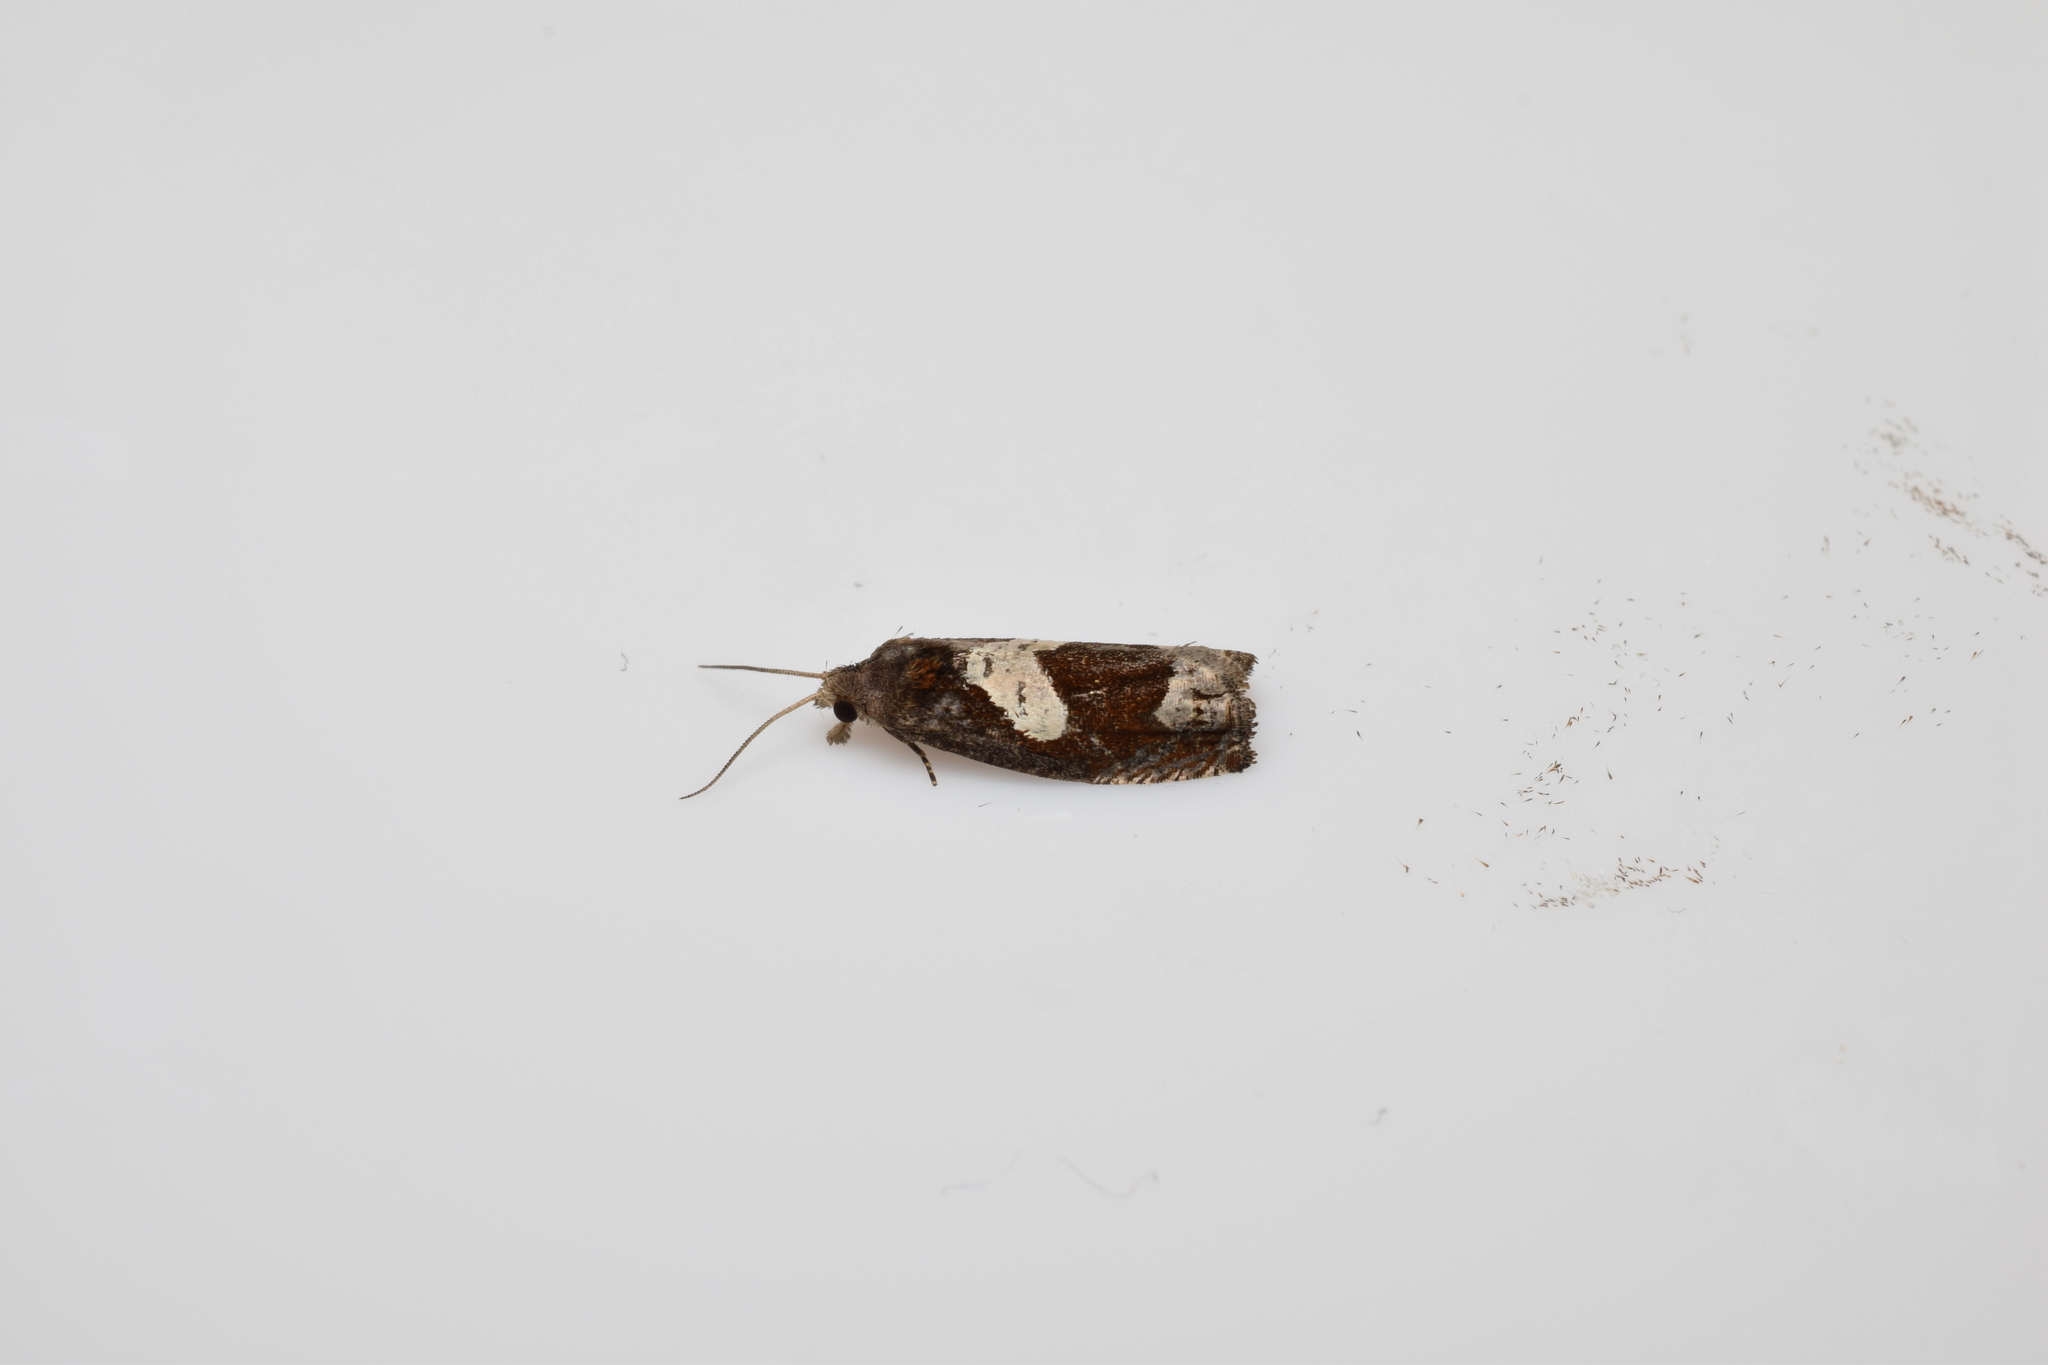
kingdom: Animalia
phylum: Arthropoda
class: Insecta
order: Lepidoptera
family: Tortricidae
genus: Epiblema
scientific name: Epiblema foenella
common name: White-foot bell
